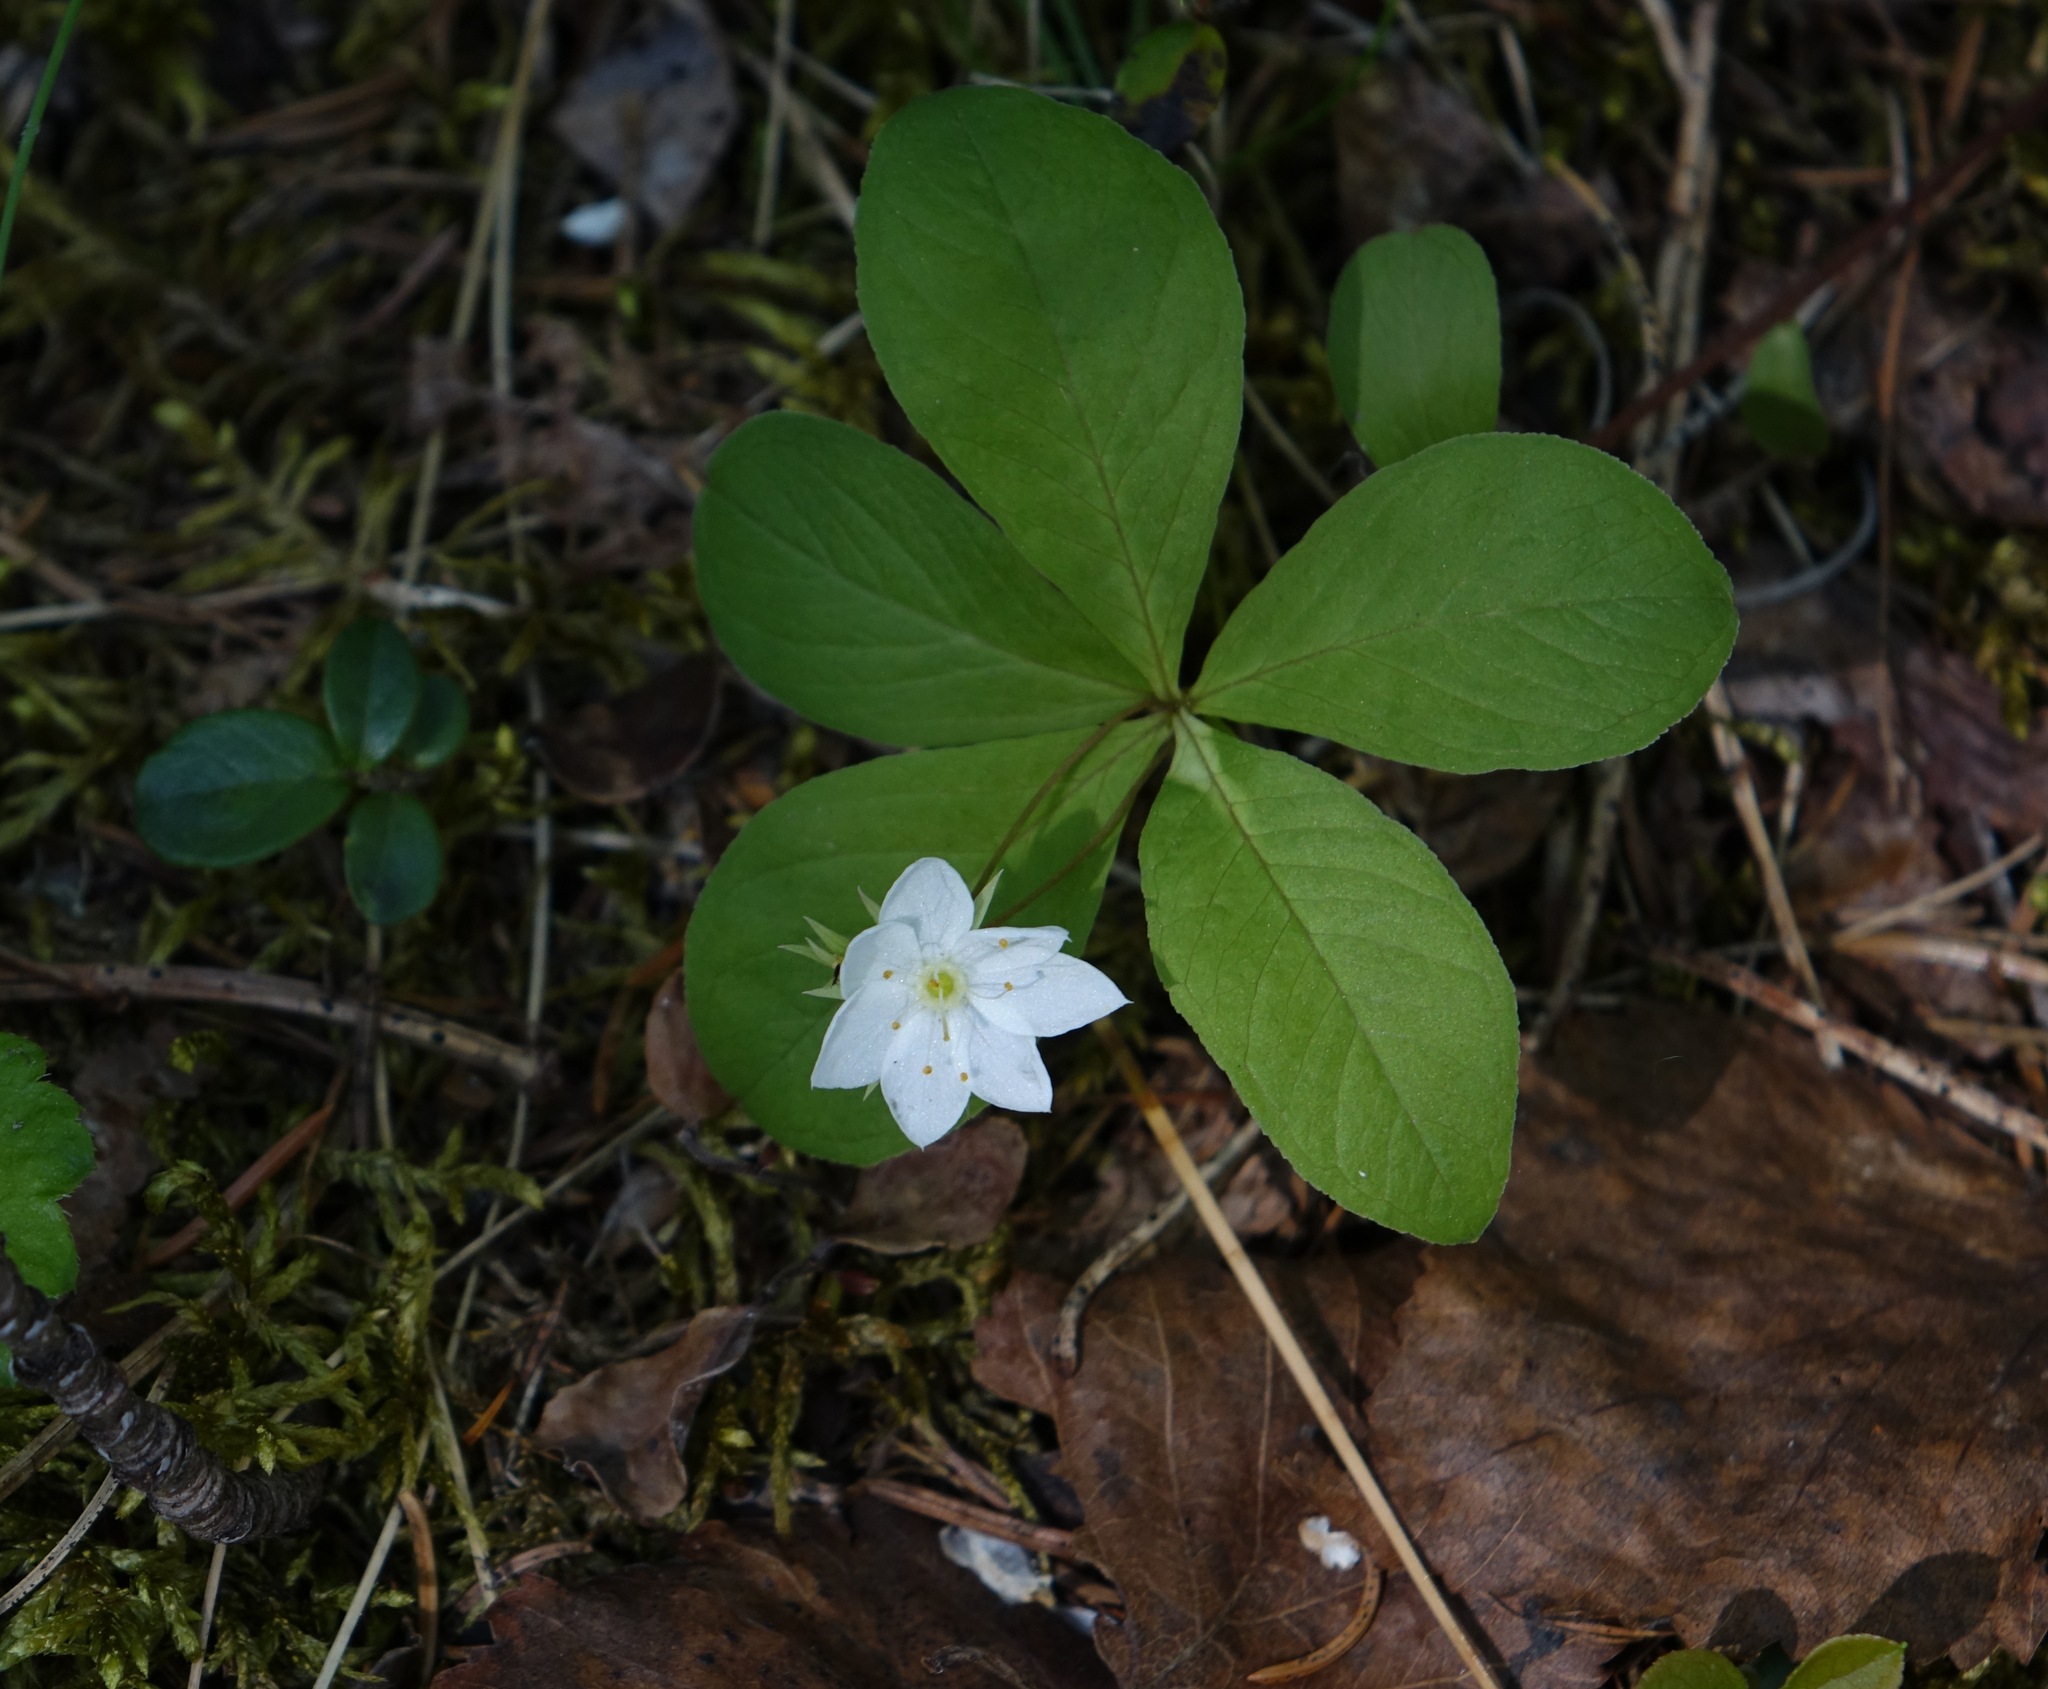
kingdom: Plantae
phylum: Tracheophyta
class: Magnoliopsida
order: Ericales
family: Primulaceae
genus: Lysimachia
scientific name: Lysimachia europaea
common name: Arctic starflower
